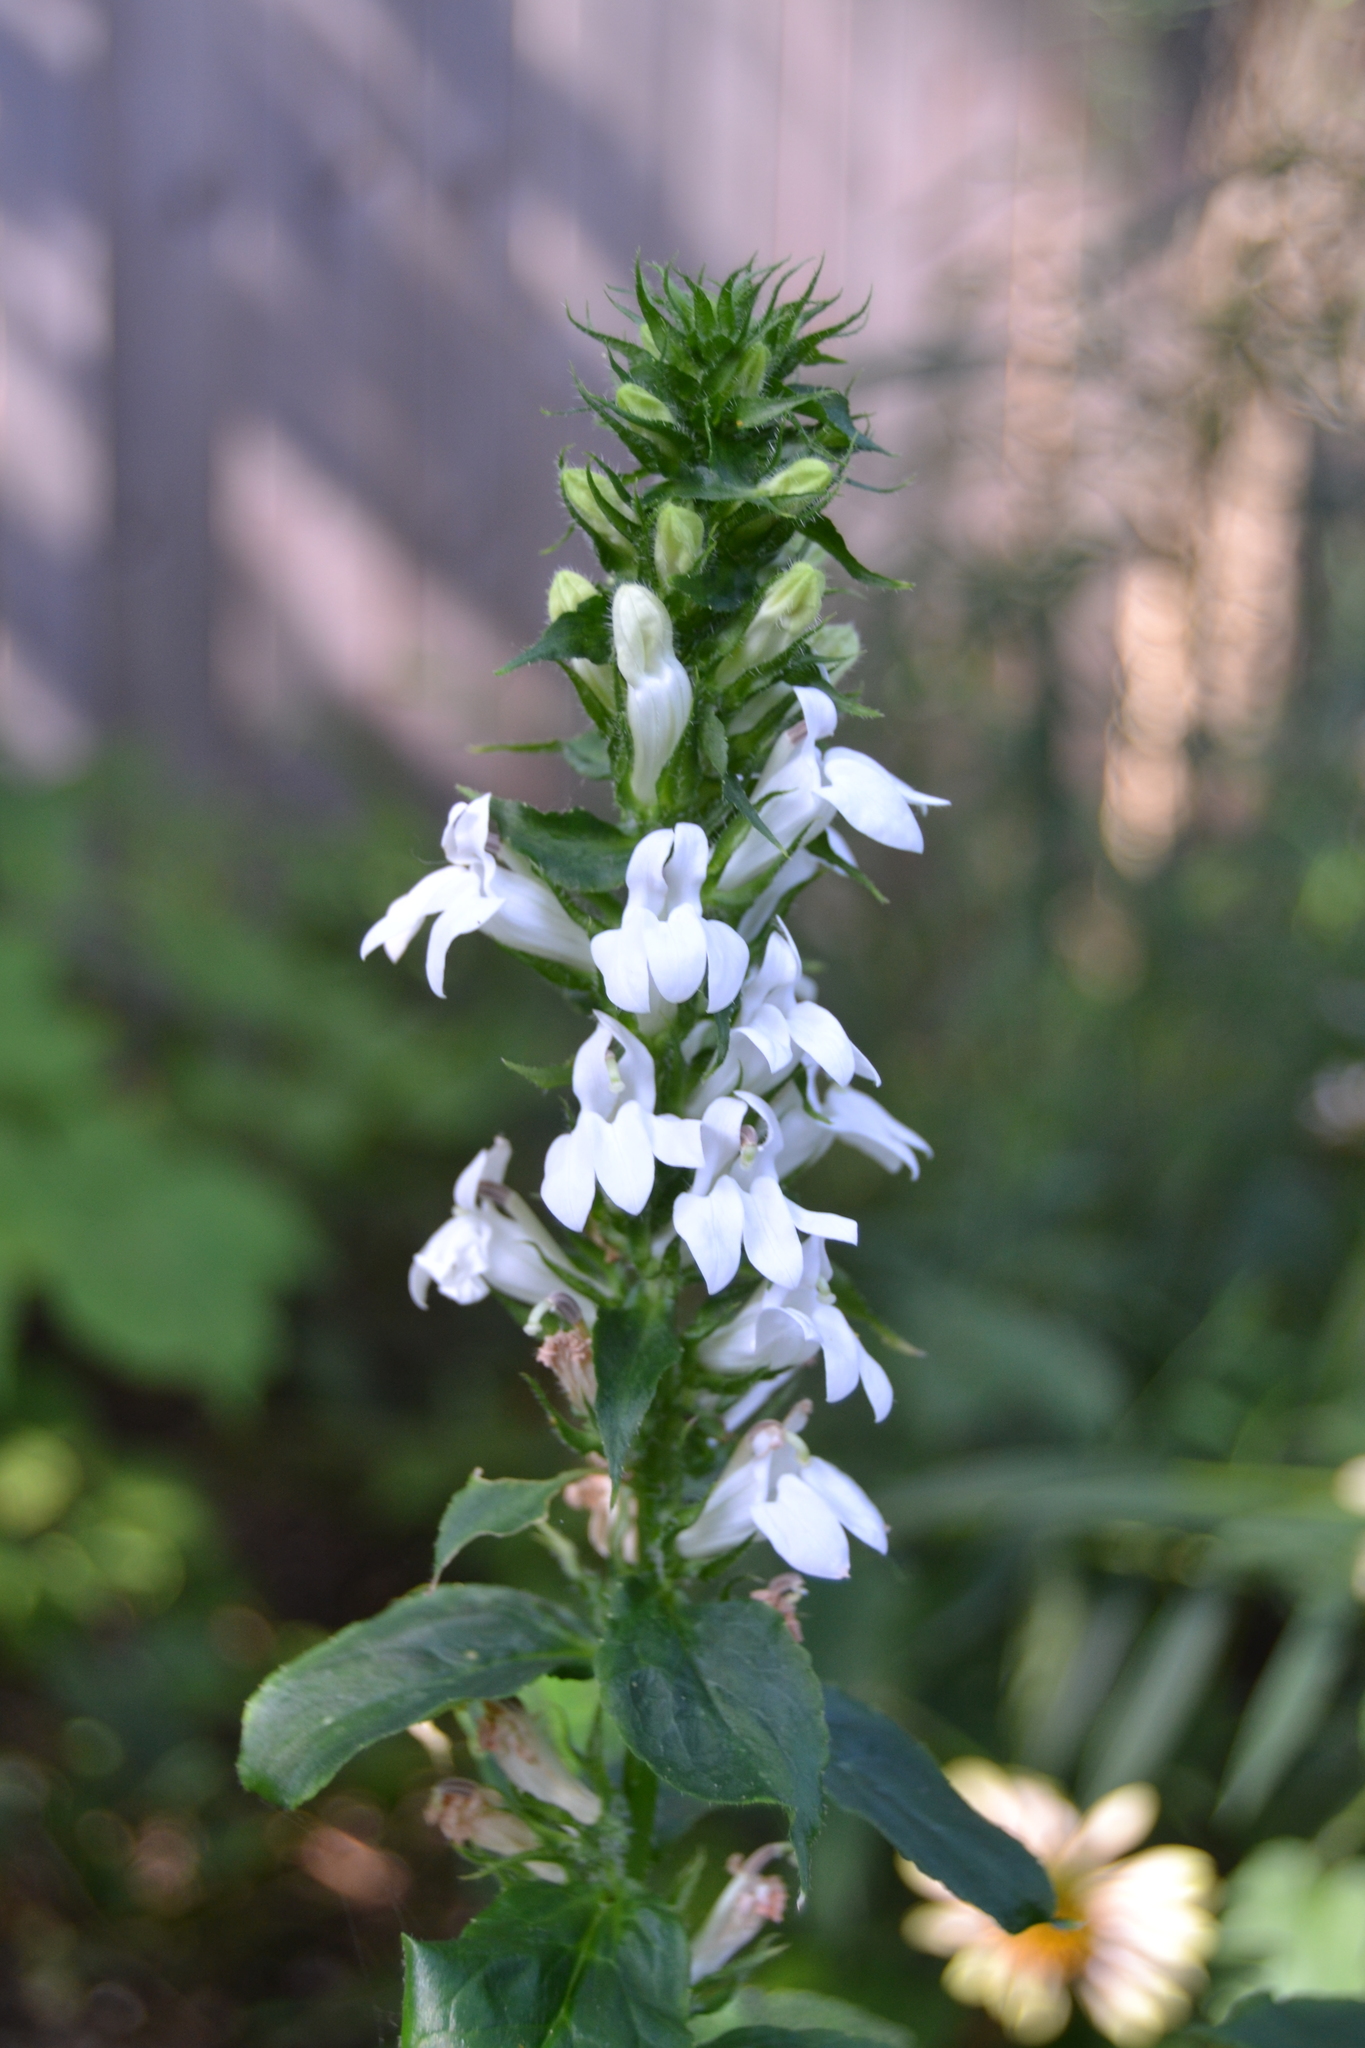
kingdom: Plantae
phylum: Tracheophyta
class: Magnoliopsida
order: Asterales
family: Campanulaceae
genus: Lobelia
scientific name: Lobelia siphilitica
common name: Great lobelia
